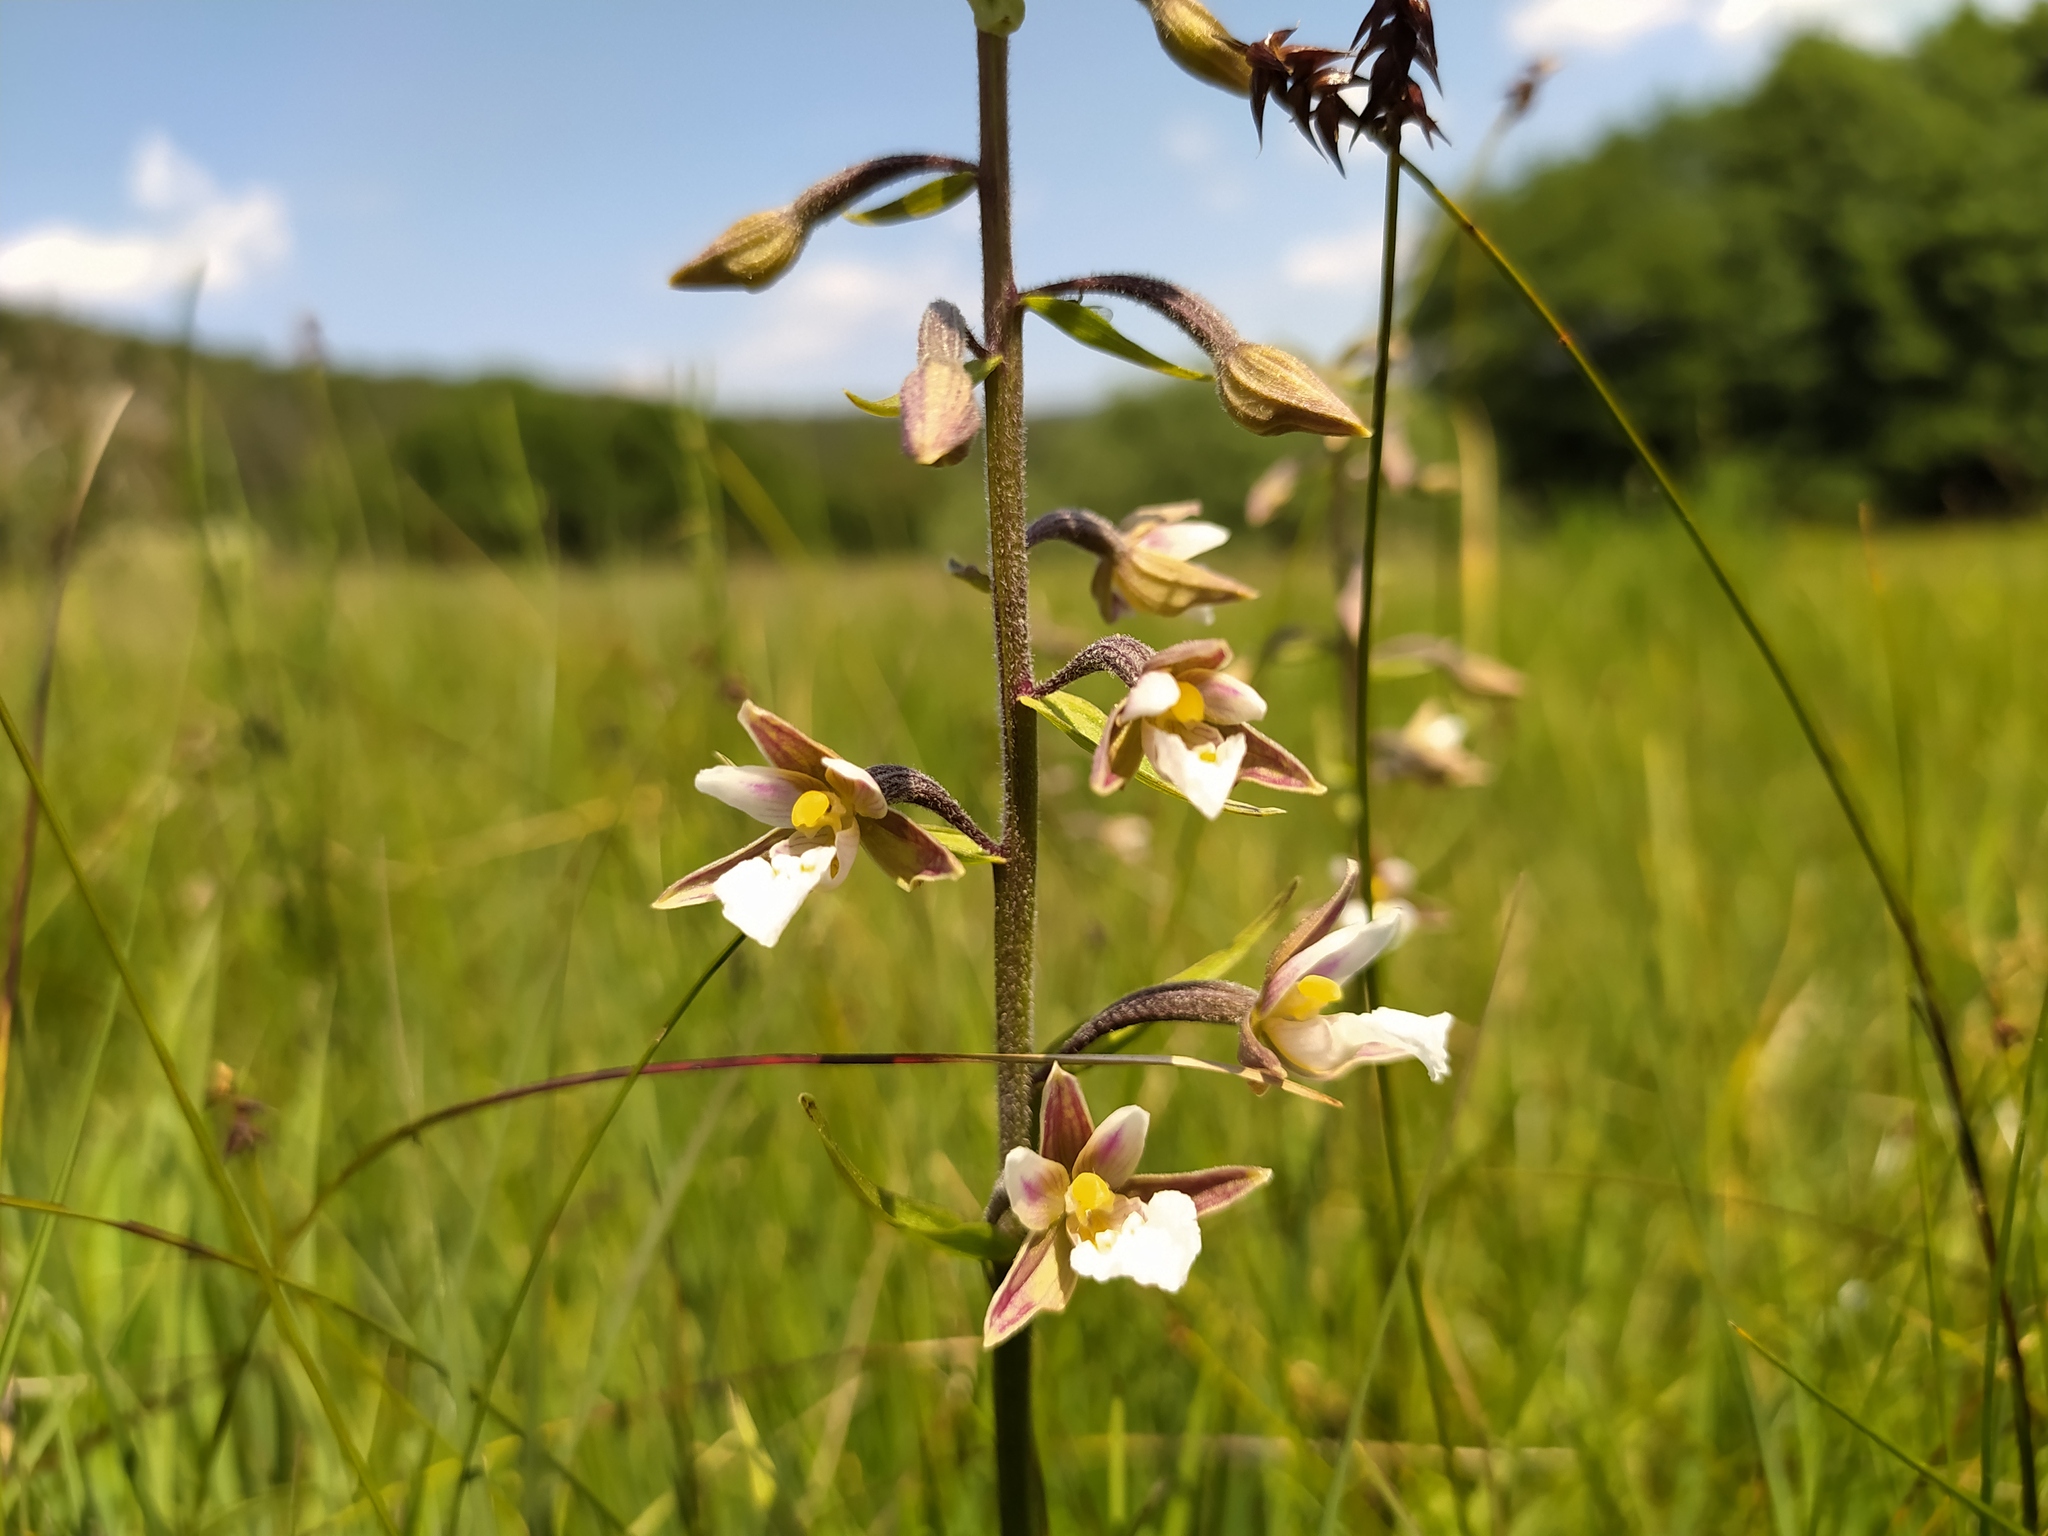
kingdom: Plantae
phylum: Tracheophyta
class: Liliopsida
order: Asparagales
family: Orchidaceae
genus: Epipactis
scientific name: Epipactis palustris
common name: Marsh helleborine
